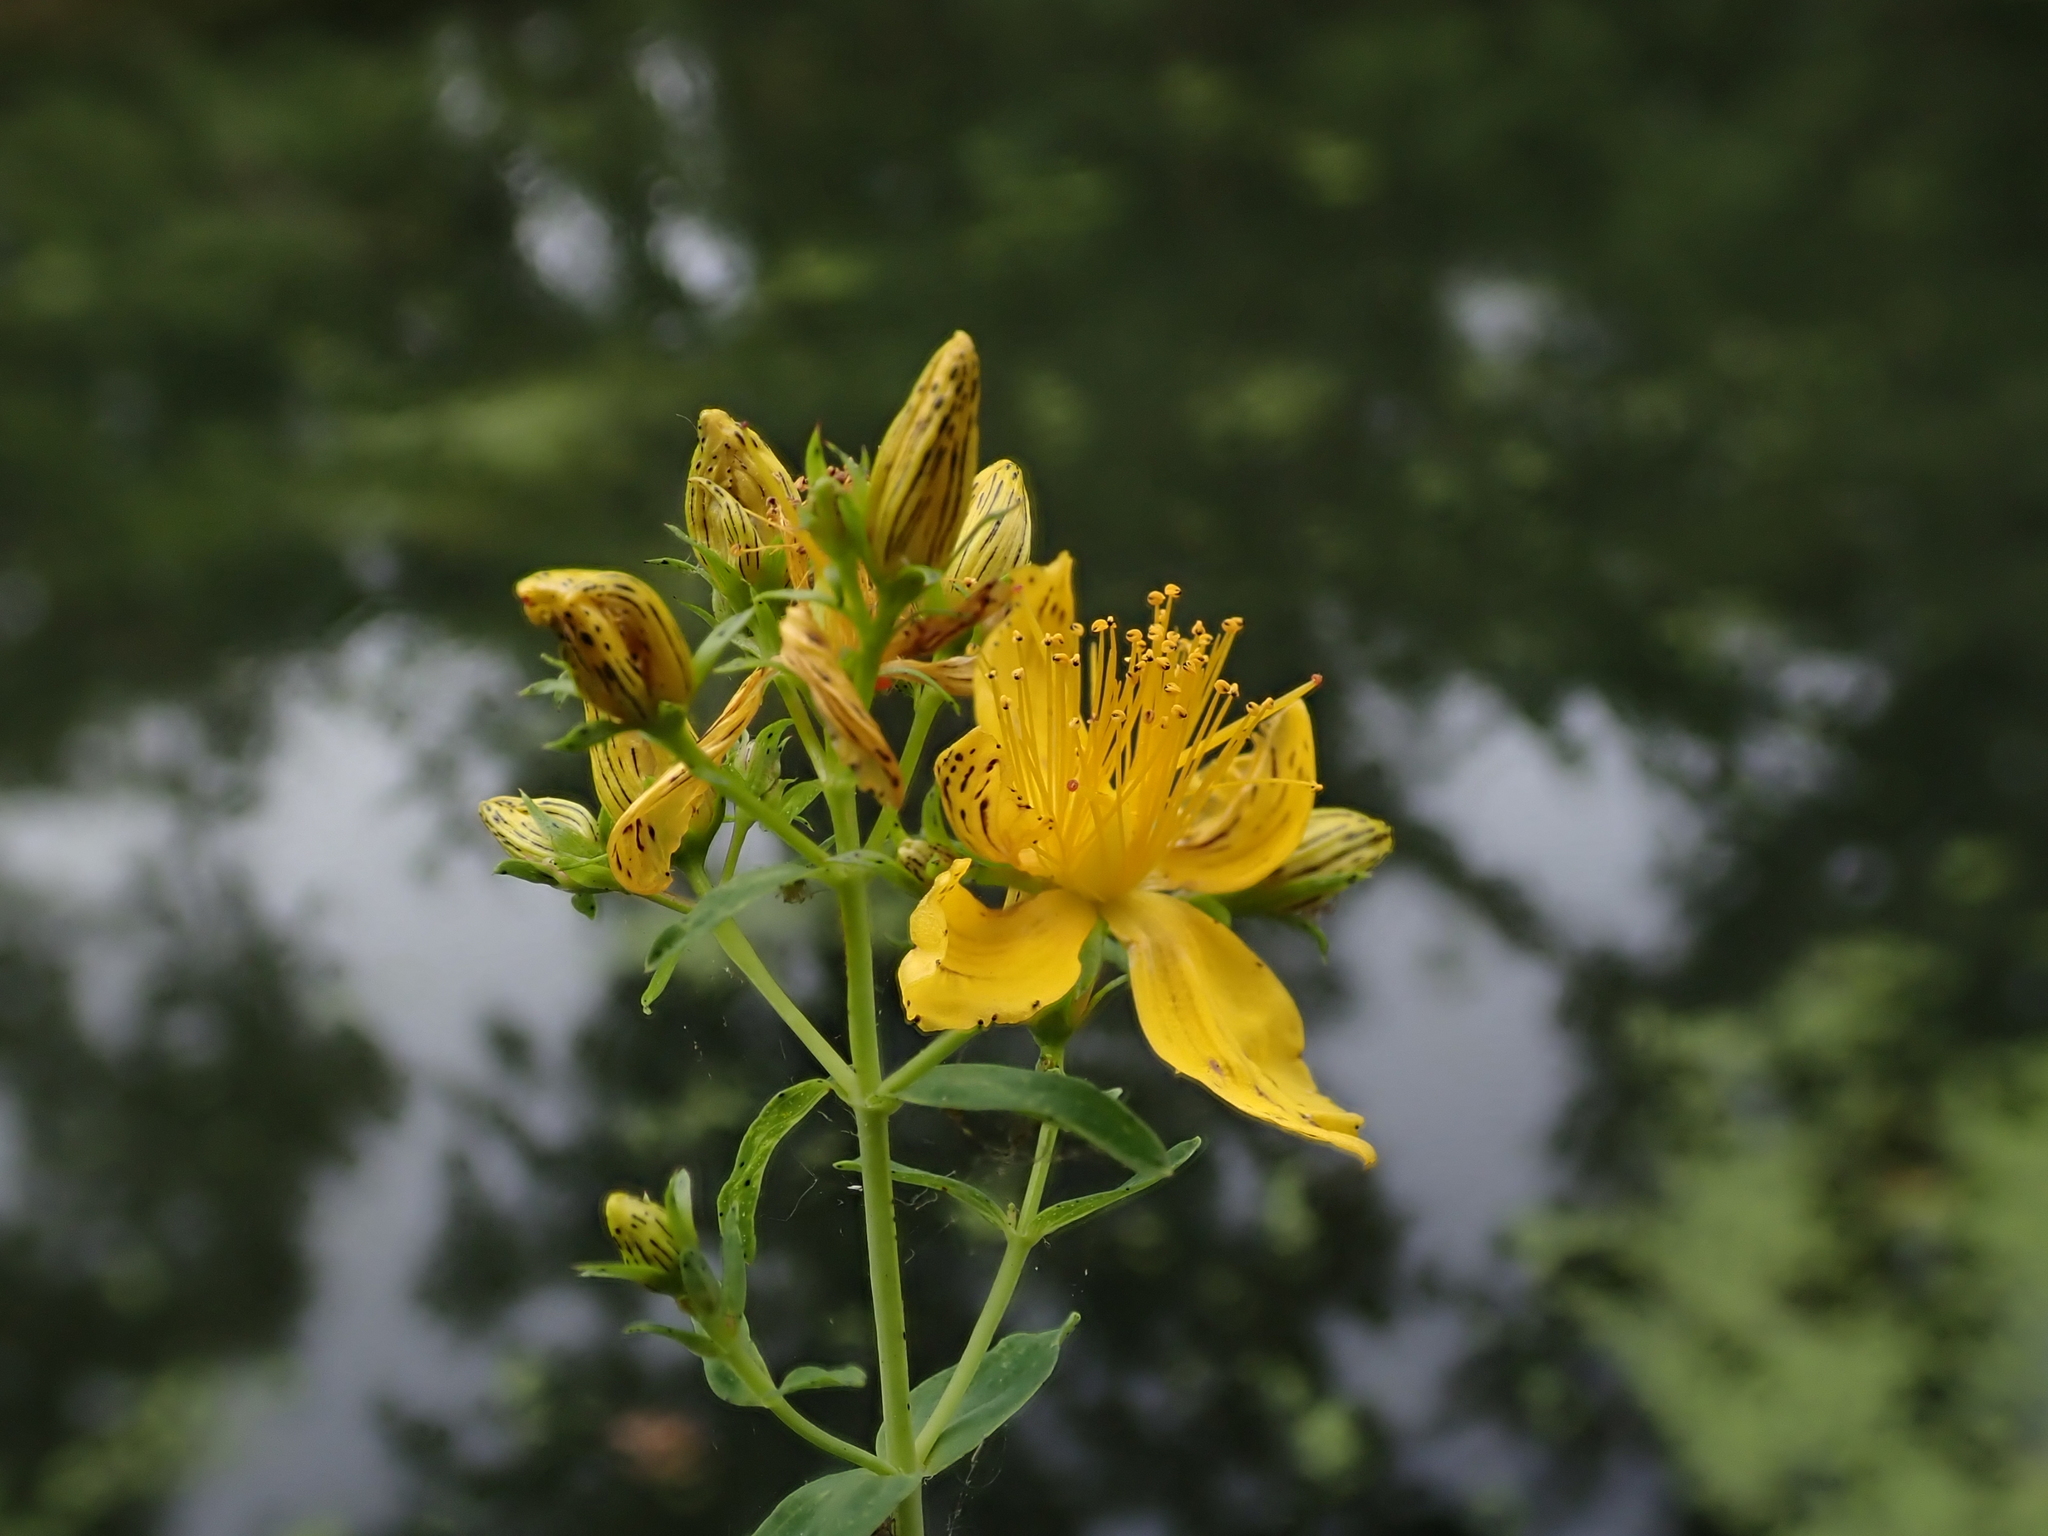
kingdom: Plantae
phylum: Tracheophyta
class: Magnoliopsida
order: Malpighiales
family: Hypericaceae
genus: Hypericum
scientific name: Hypericum perforatum
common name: Common st. johnswort
